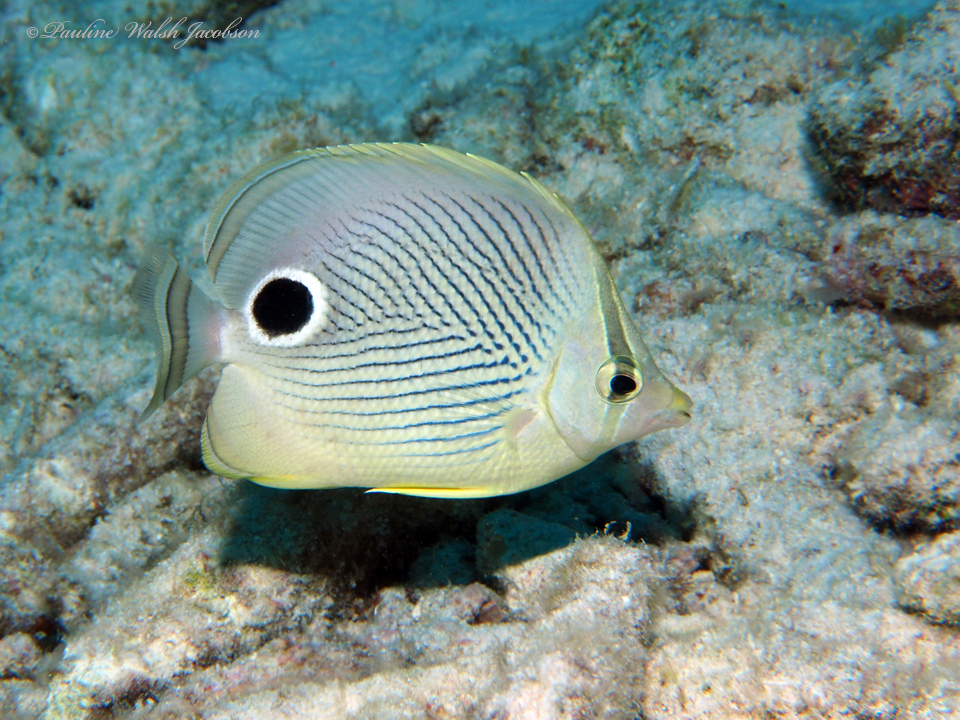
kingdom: Animalia
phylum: Chordata
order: Perciformes
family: Chaetodontidae
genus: Chaetodon
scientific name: Chaetodon capistratus
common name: Kete
